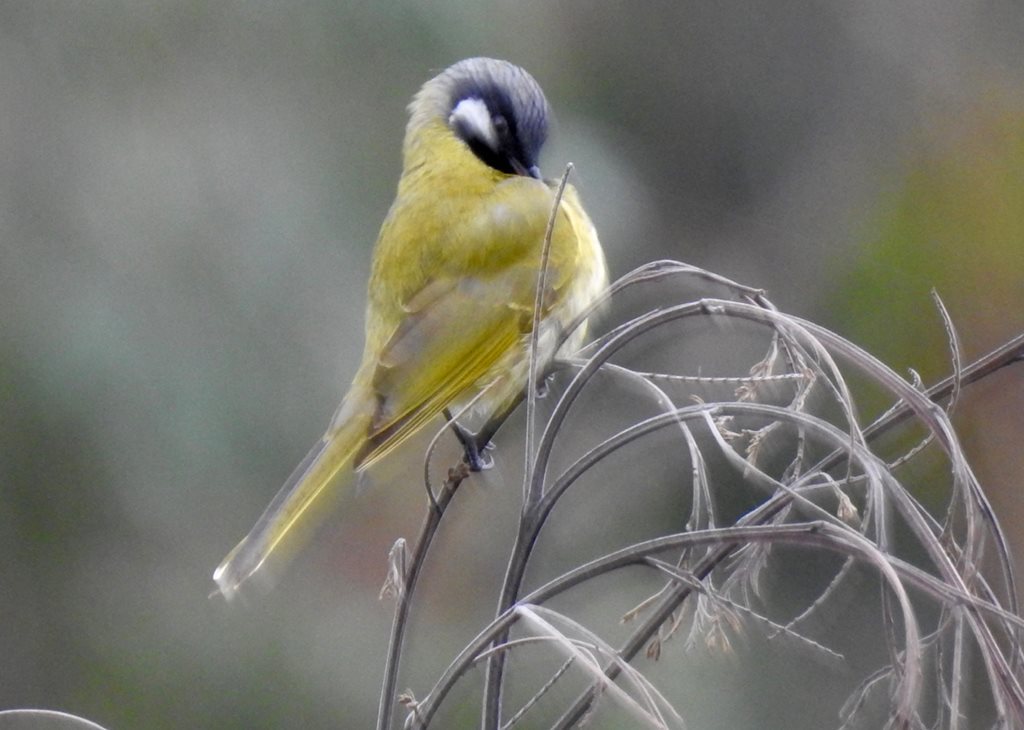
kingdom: Animalia
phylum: Chordata
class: Aves
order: Passeriformes
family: Meliphagidae
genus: Nesoptilotis
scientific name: Nesoptilotis leucotis
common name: White-eared honeyeater
